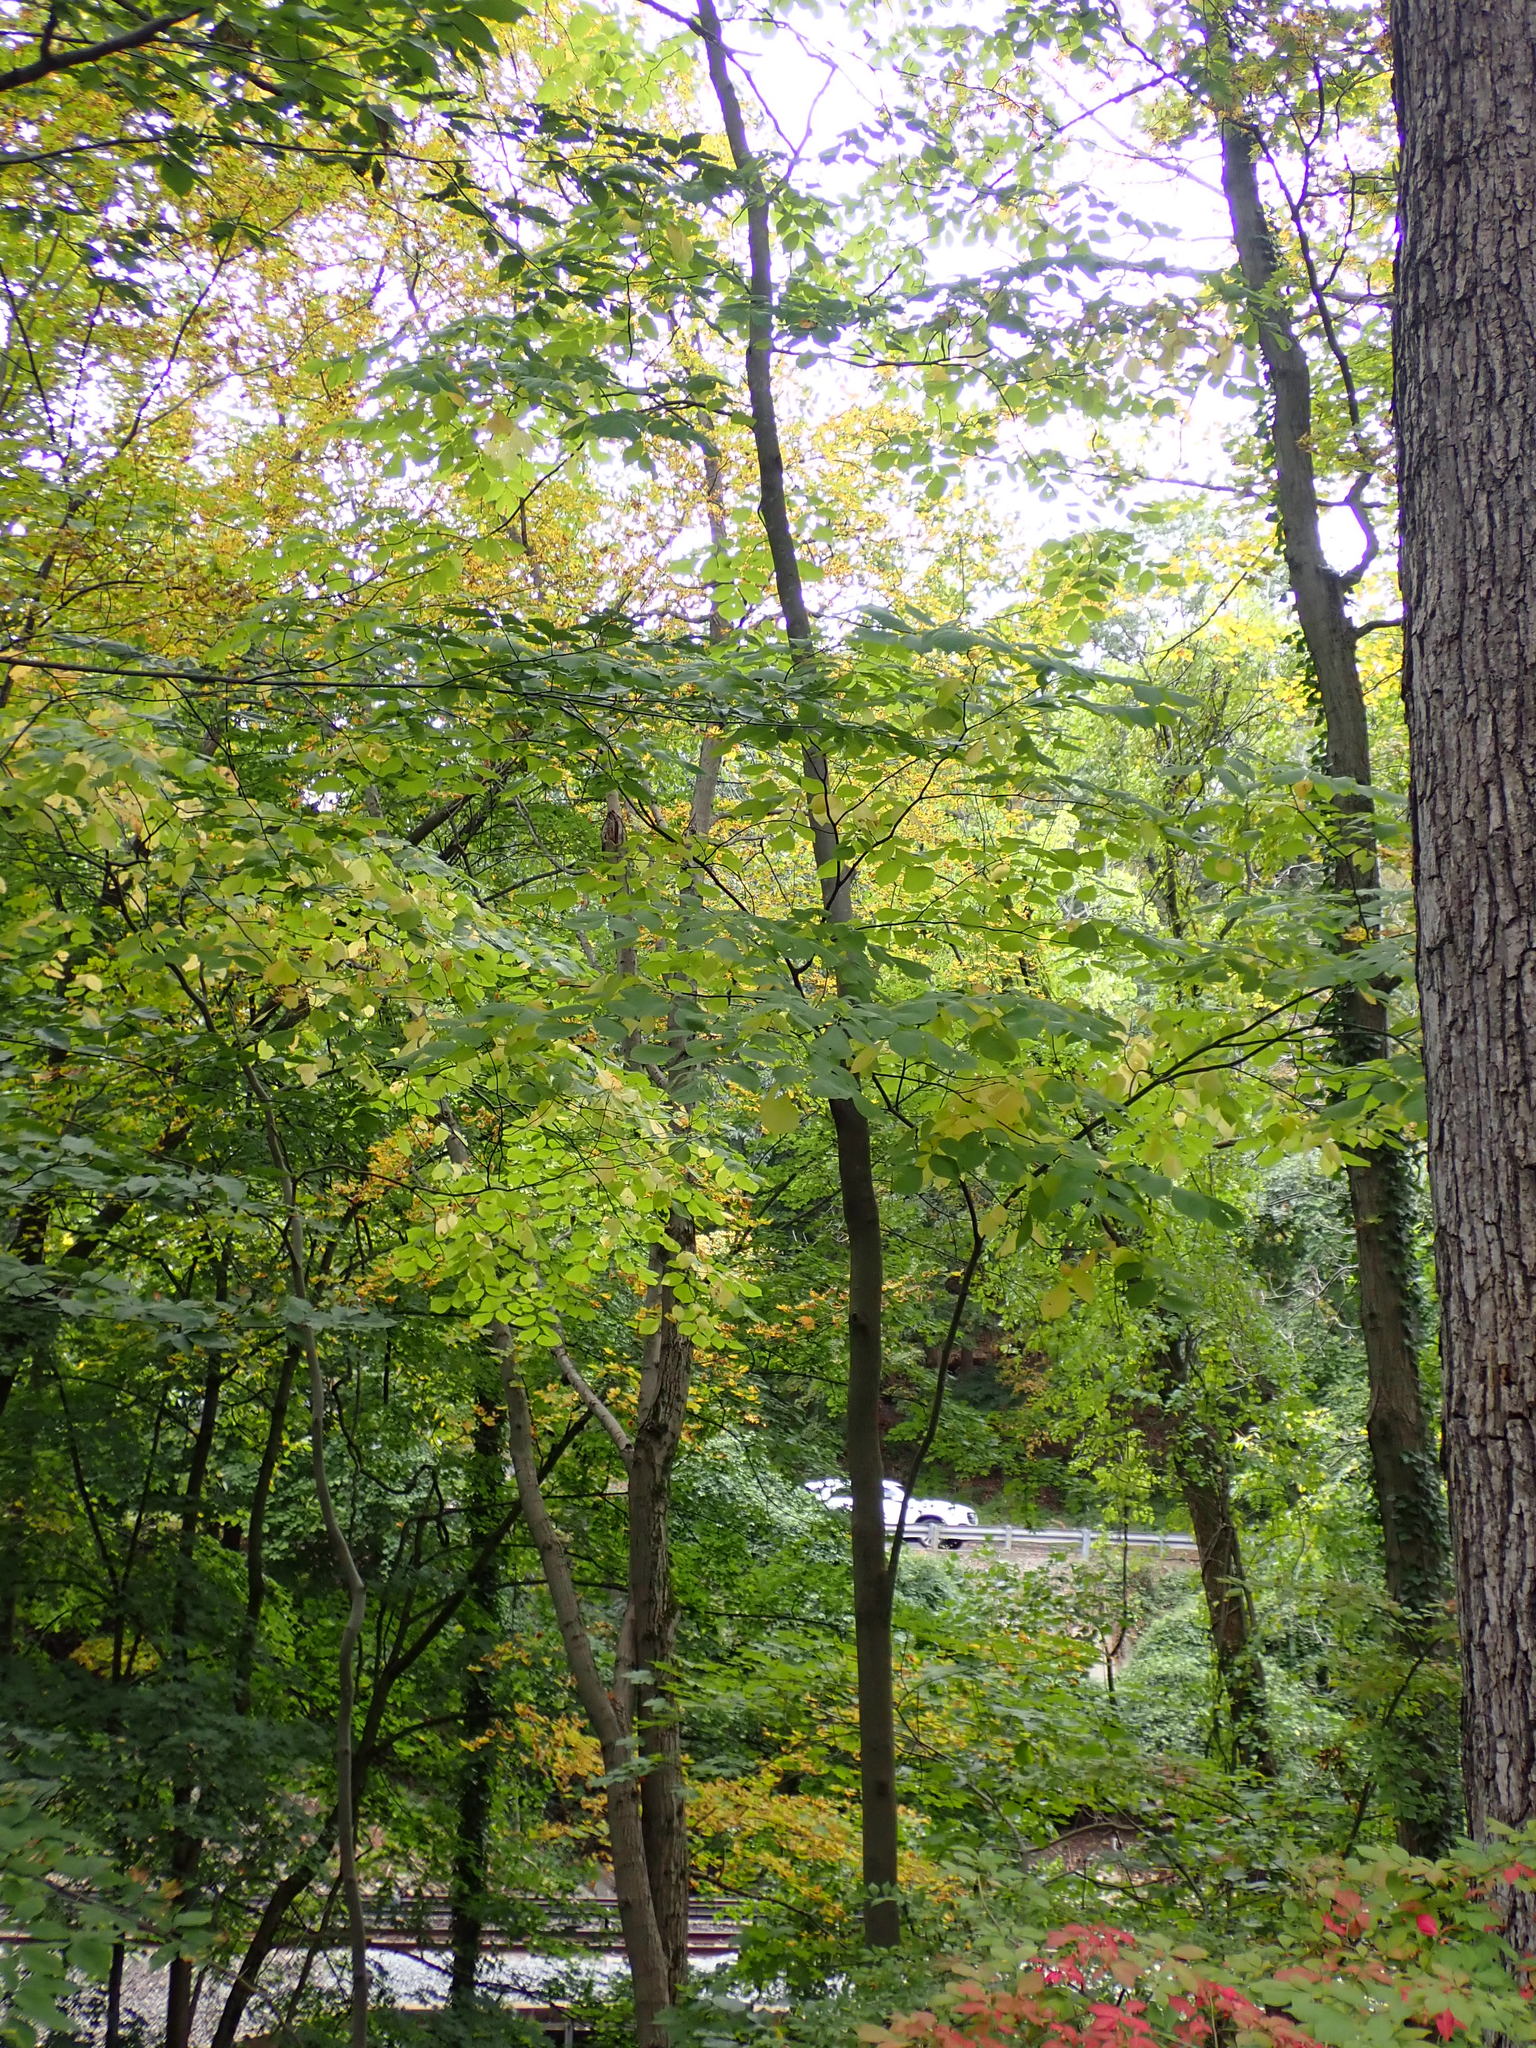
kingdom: Plantae
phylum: Tracheophyta
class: Magnoliopsida
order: Fabales
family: Fabaceae
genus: Cladrastis
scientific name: Cladrastis kentukea
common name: Kentucky yellow-wood
